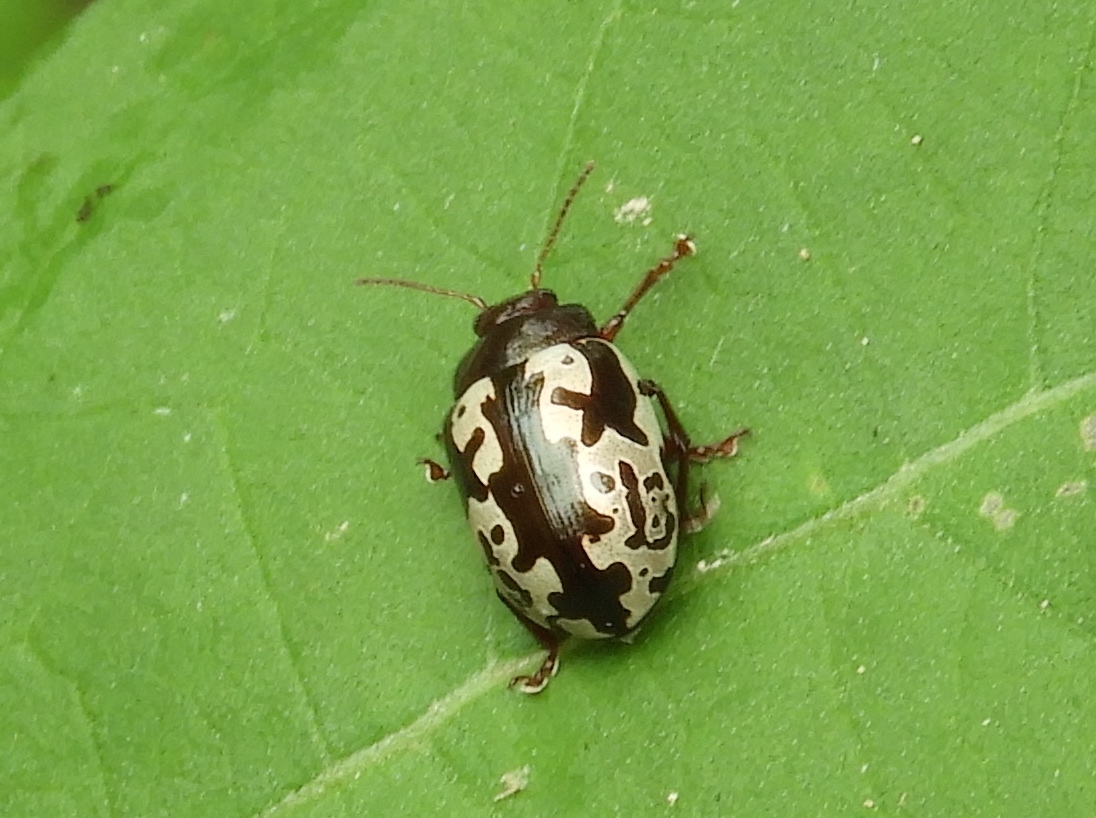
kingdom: Animalia
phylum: Arthropoda
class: Insecta
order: Coleoptera
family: Chrysomelidae
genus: Calligrapha
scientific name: Calligrapha intermedia
